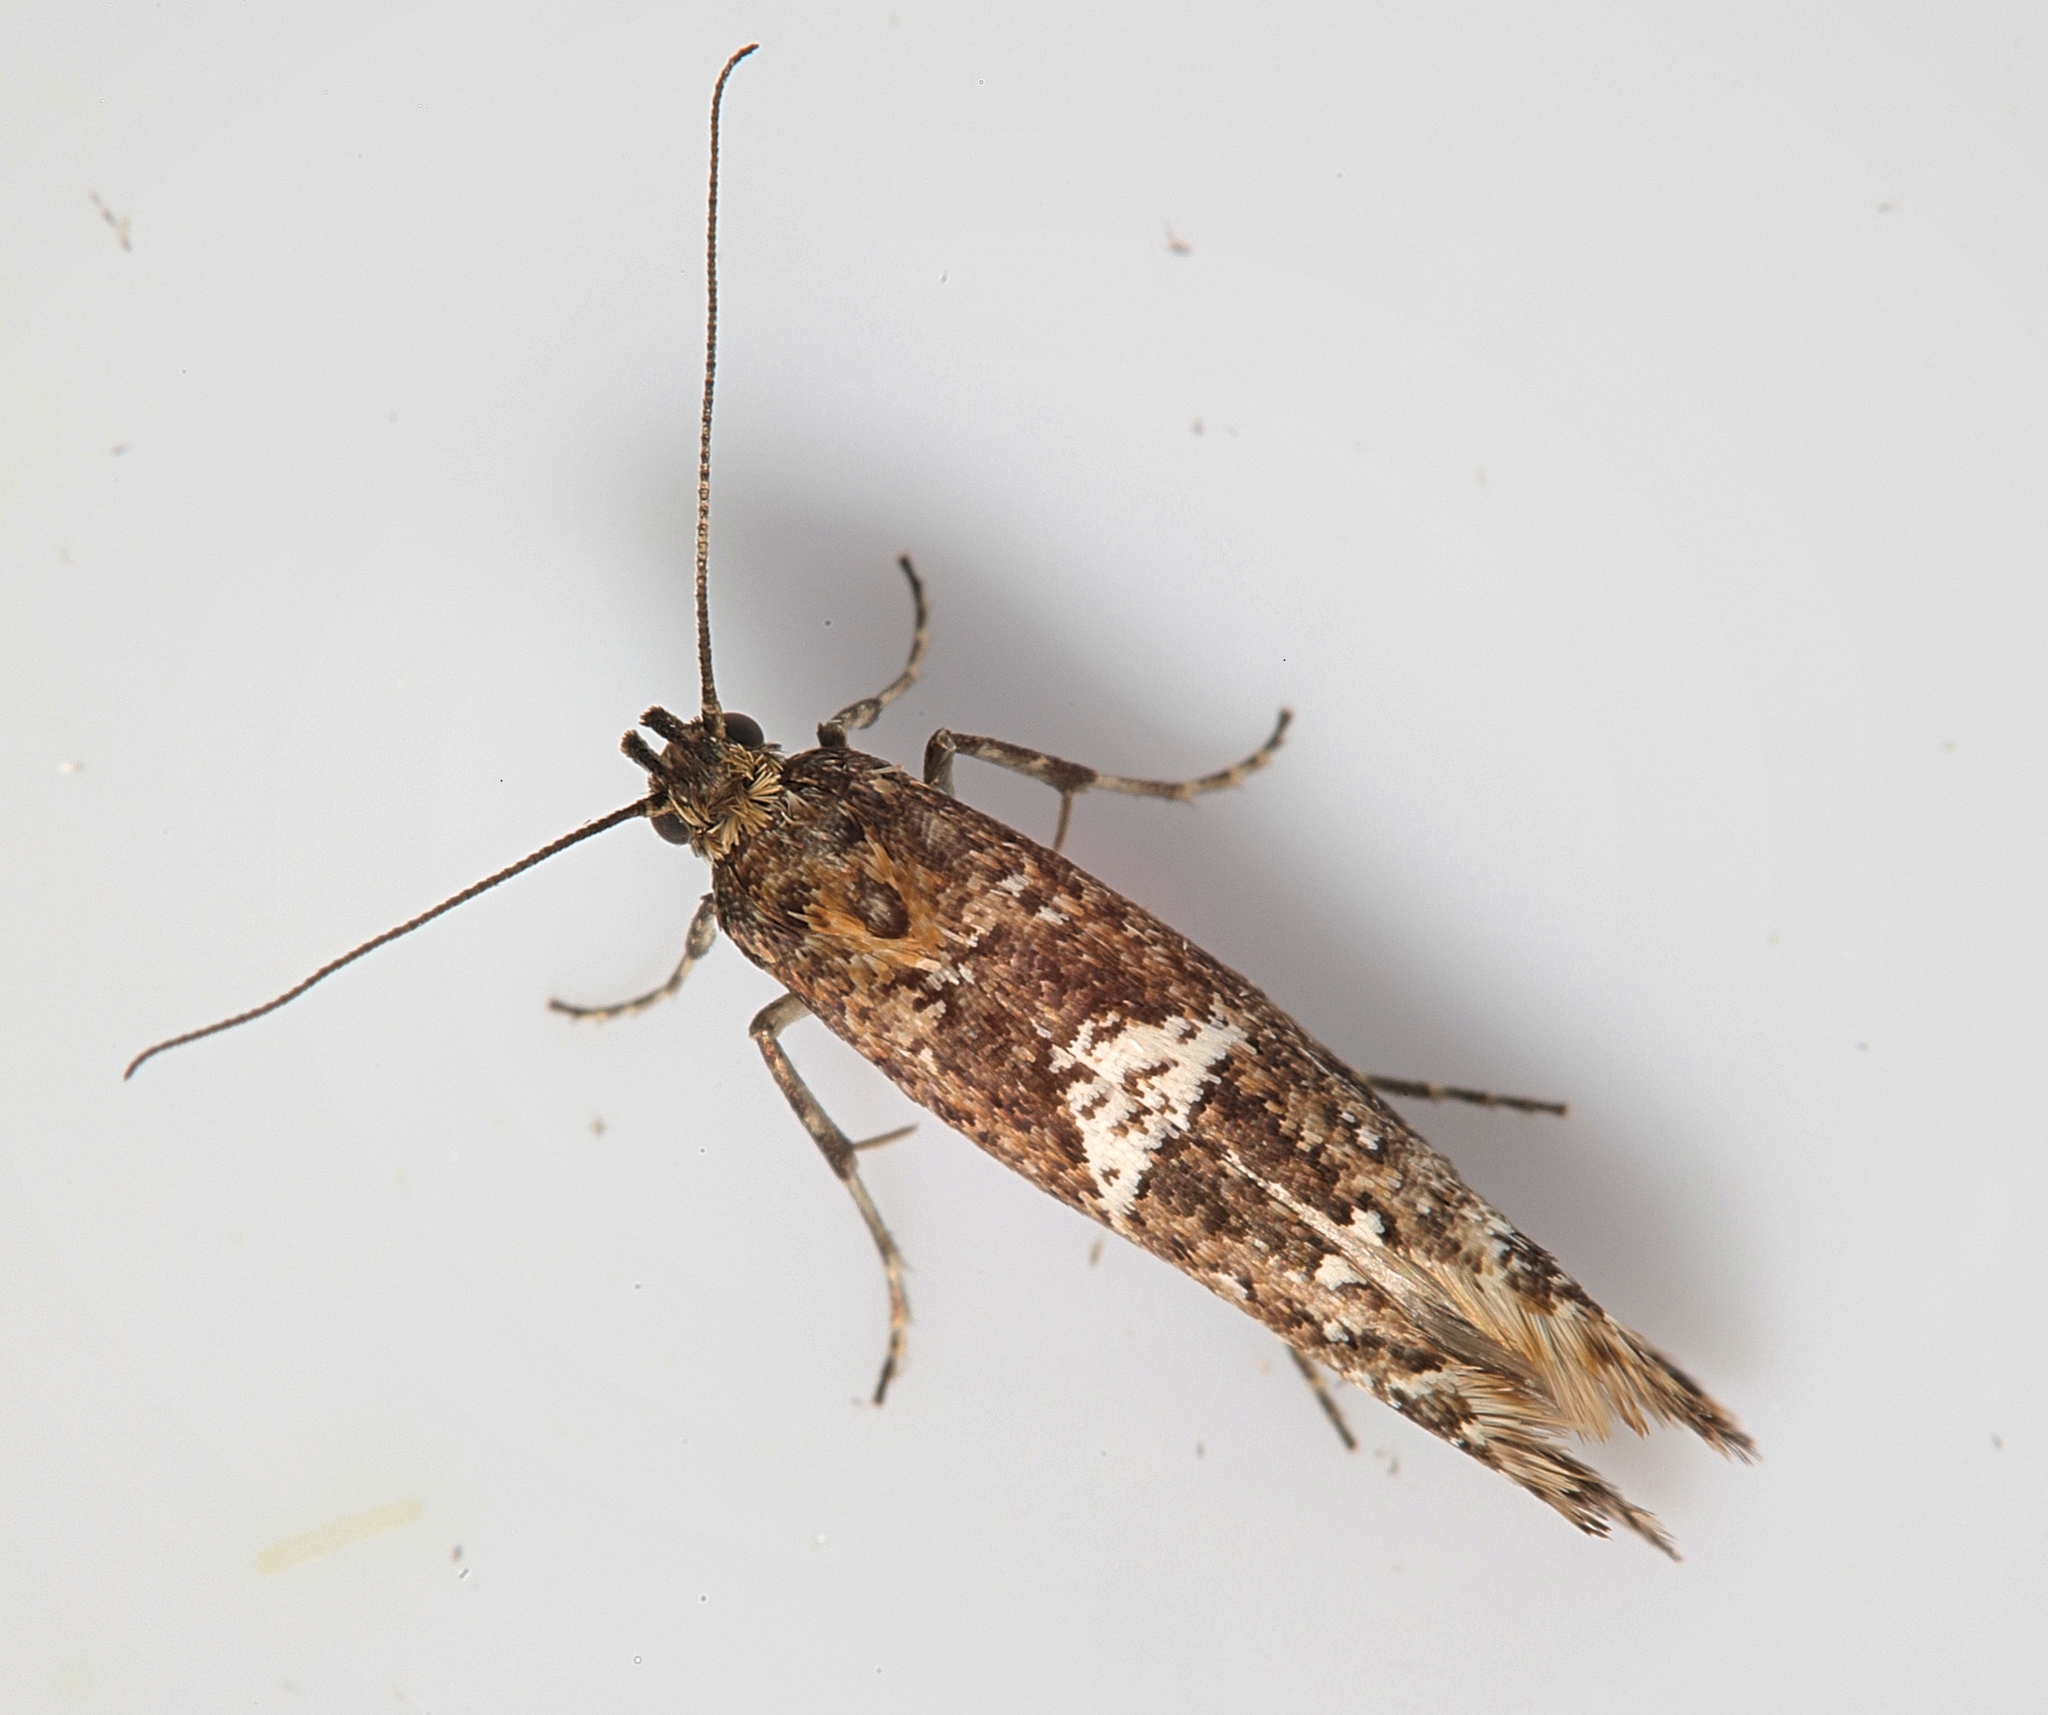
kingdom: Animalia
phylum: Arthropoda
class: Insecta
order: Lepidoptera
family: Glyphipterigidae
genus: Acrolepia
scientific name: Acrolepia assectella
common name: Onion leaf miner
